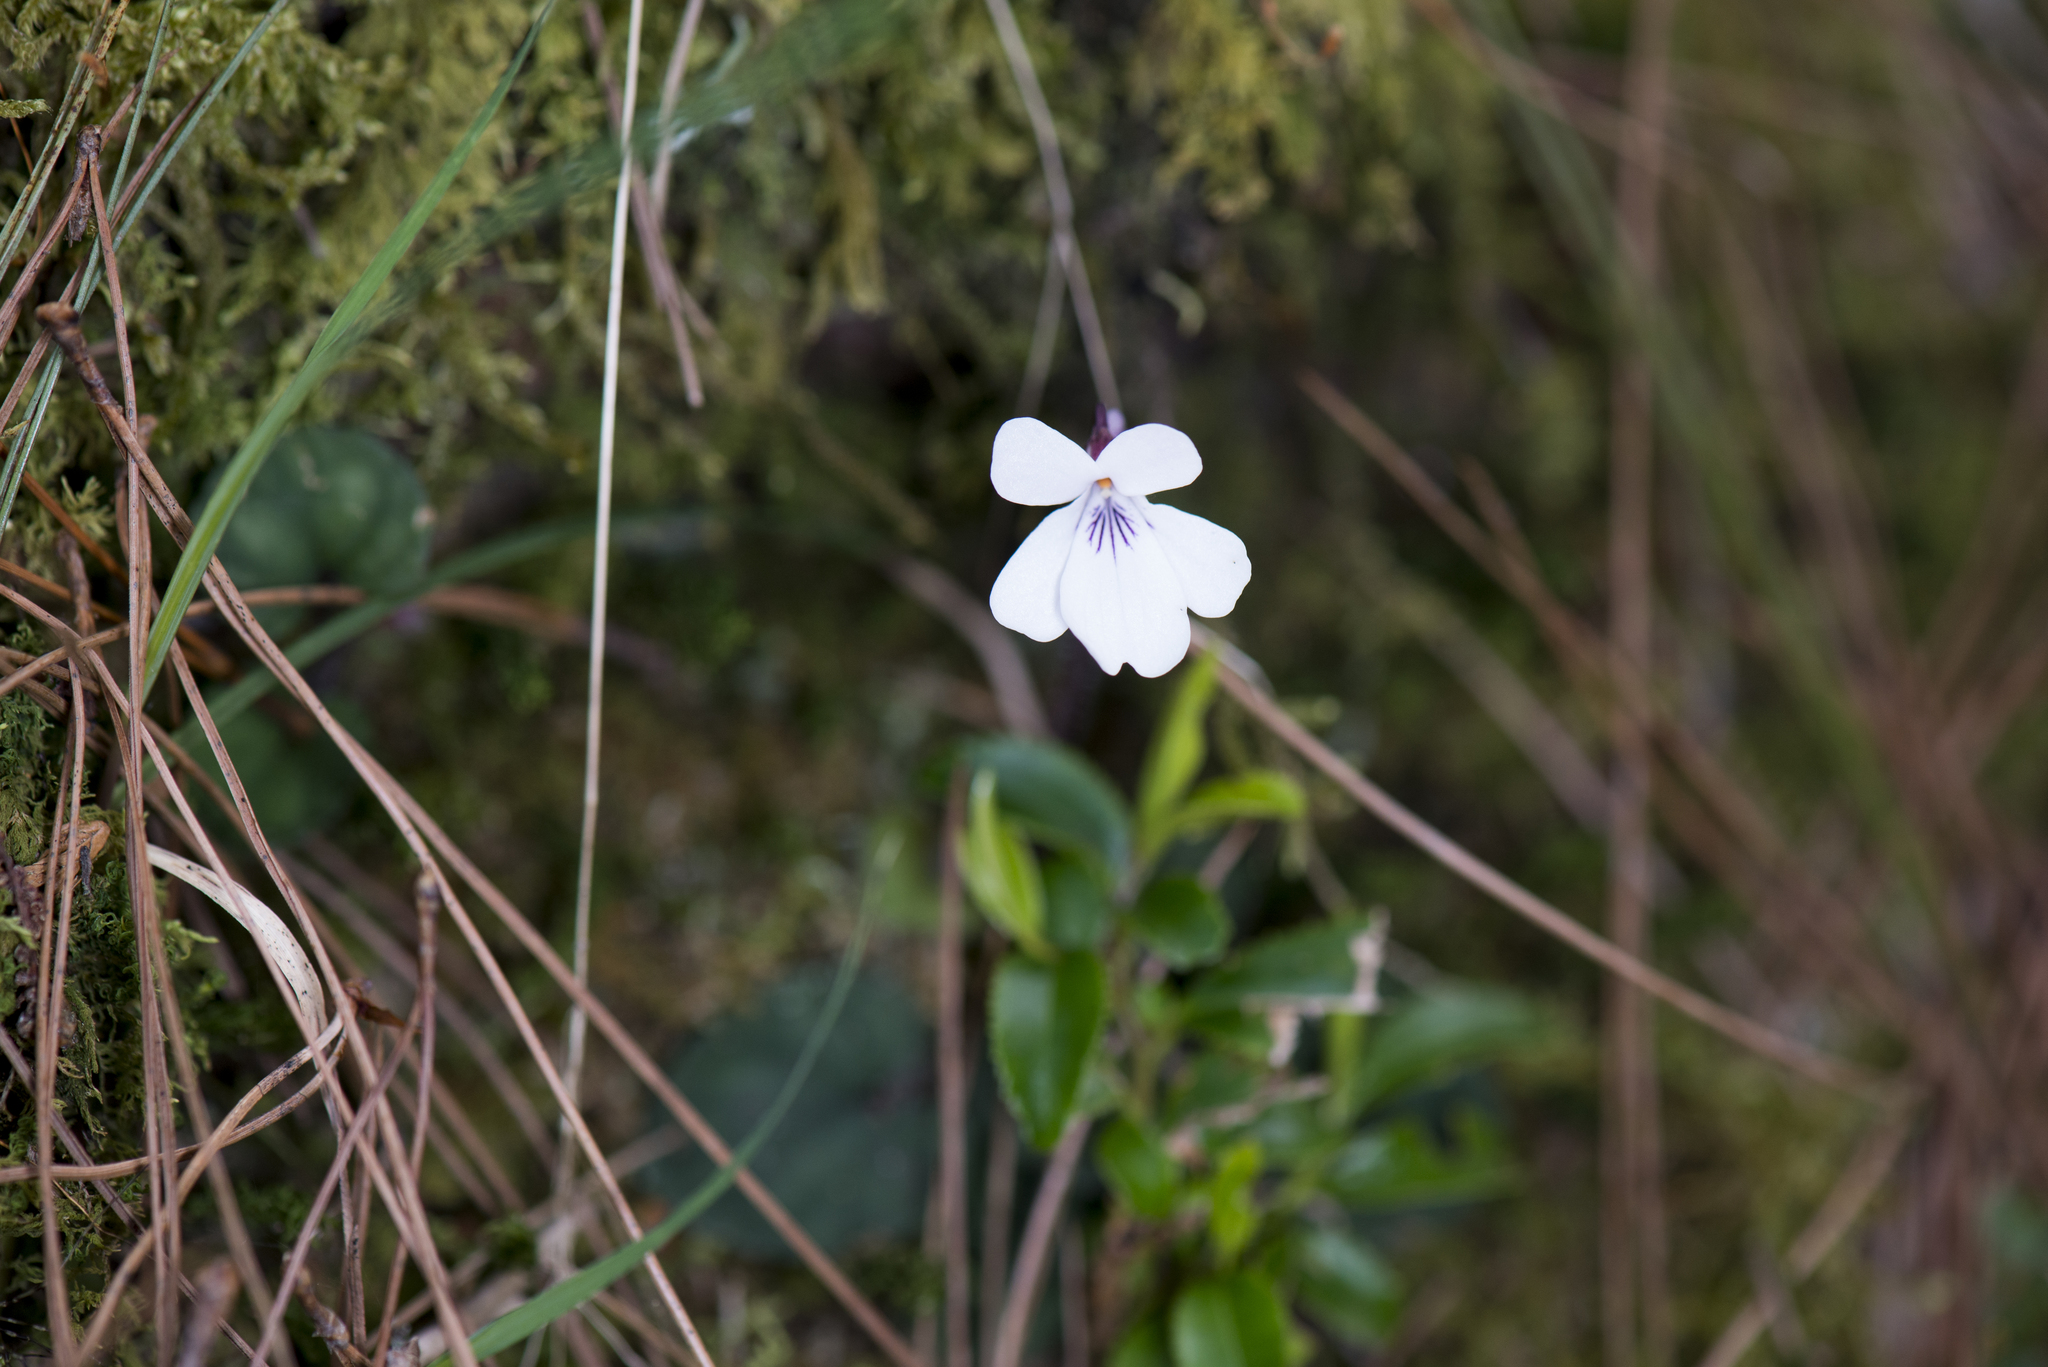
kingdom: Plantae
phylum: Tracheophyta
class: Magnoliopsida
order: Malpighiales
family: Violaceae
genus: Viola
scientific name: Viola formosana
